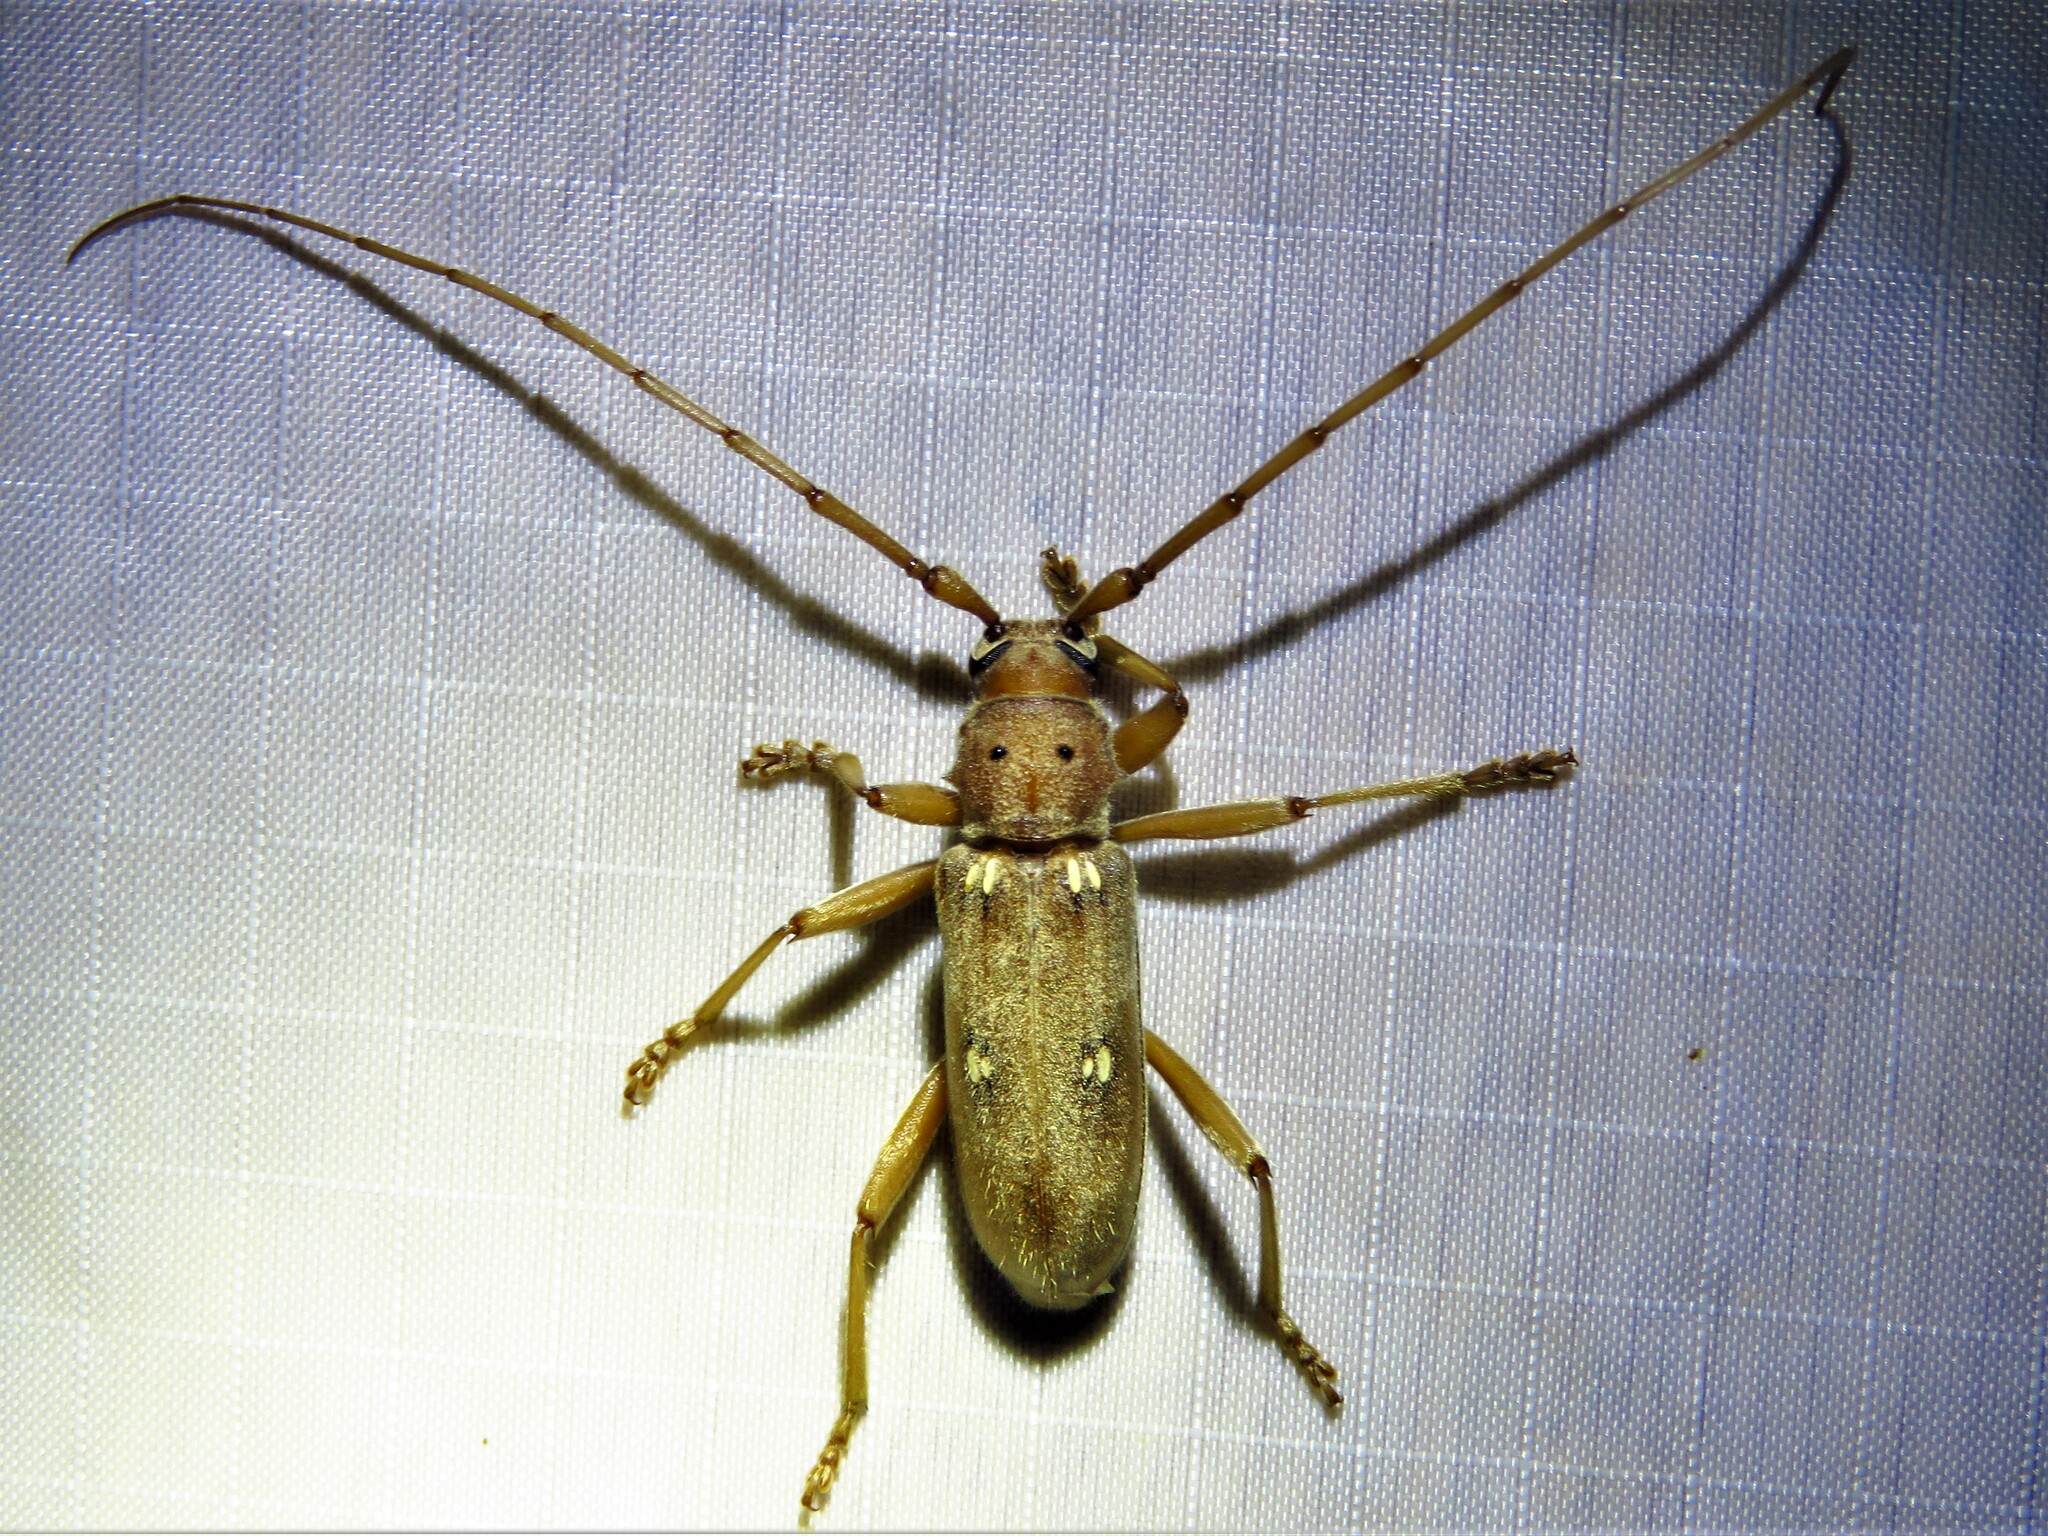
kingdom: Animalia
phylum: Arthropoda
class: Insecta
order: Coleoptera
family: Cerambycidae
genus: Eburia
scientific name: Eburia haldemani
